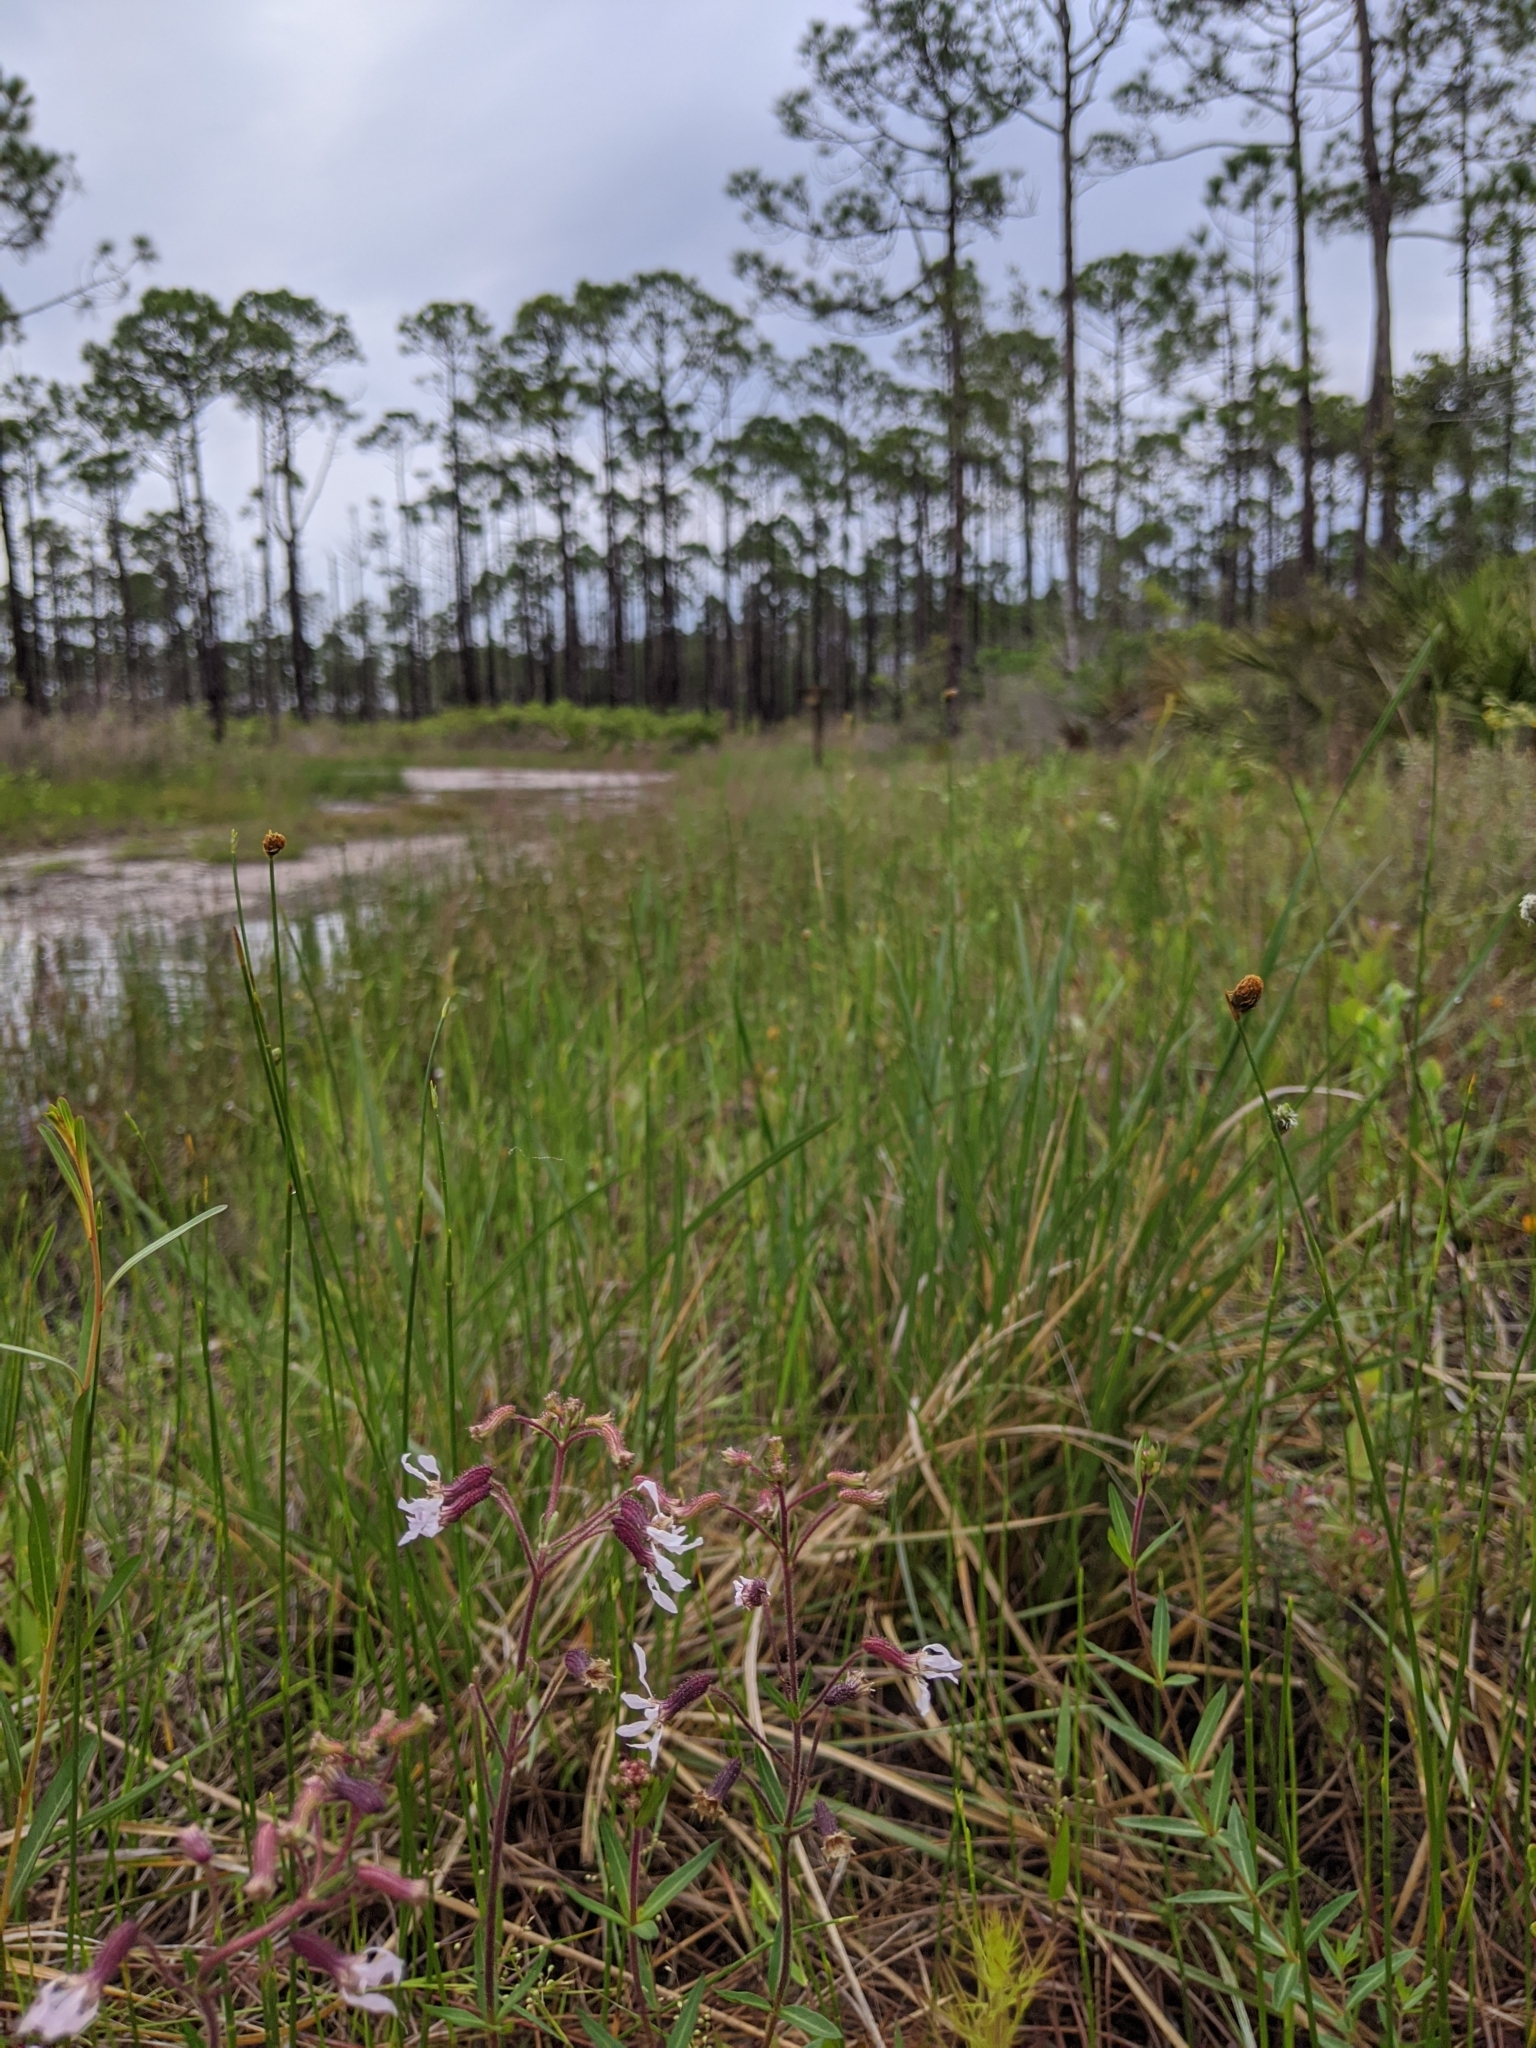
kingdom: Plantae
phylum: Tracheophyta
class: Magnoliopsida
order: Myrtales
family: Lythraceae
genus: Cuphea
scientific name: Cuphea aspera
